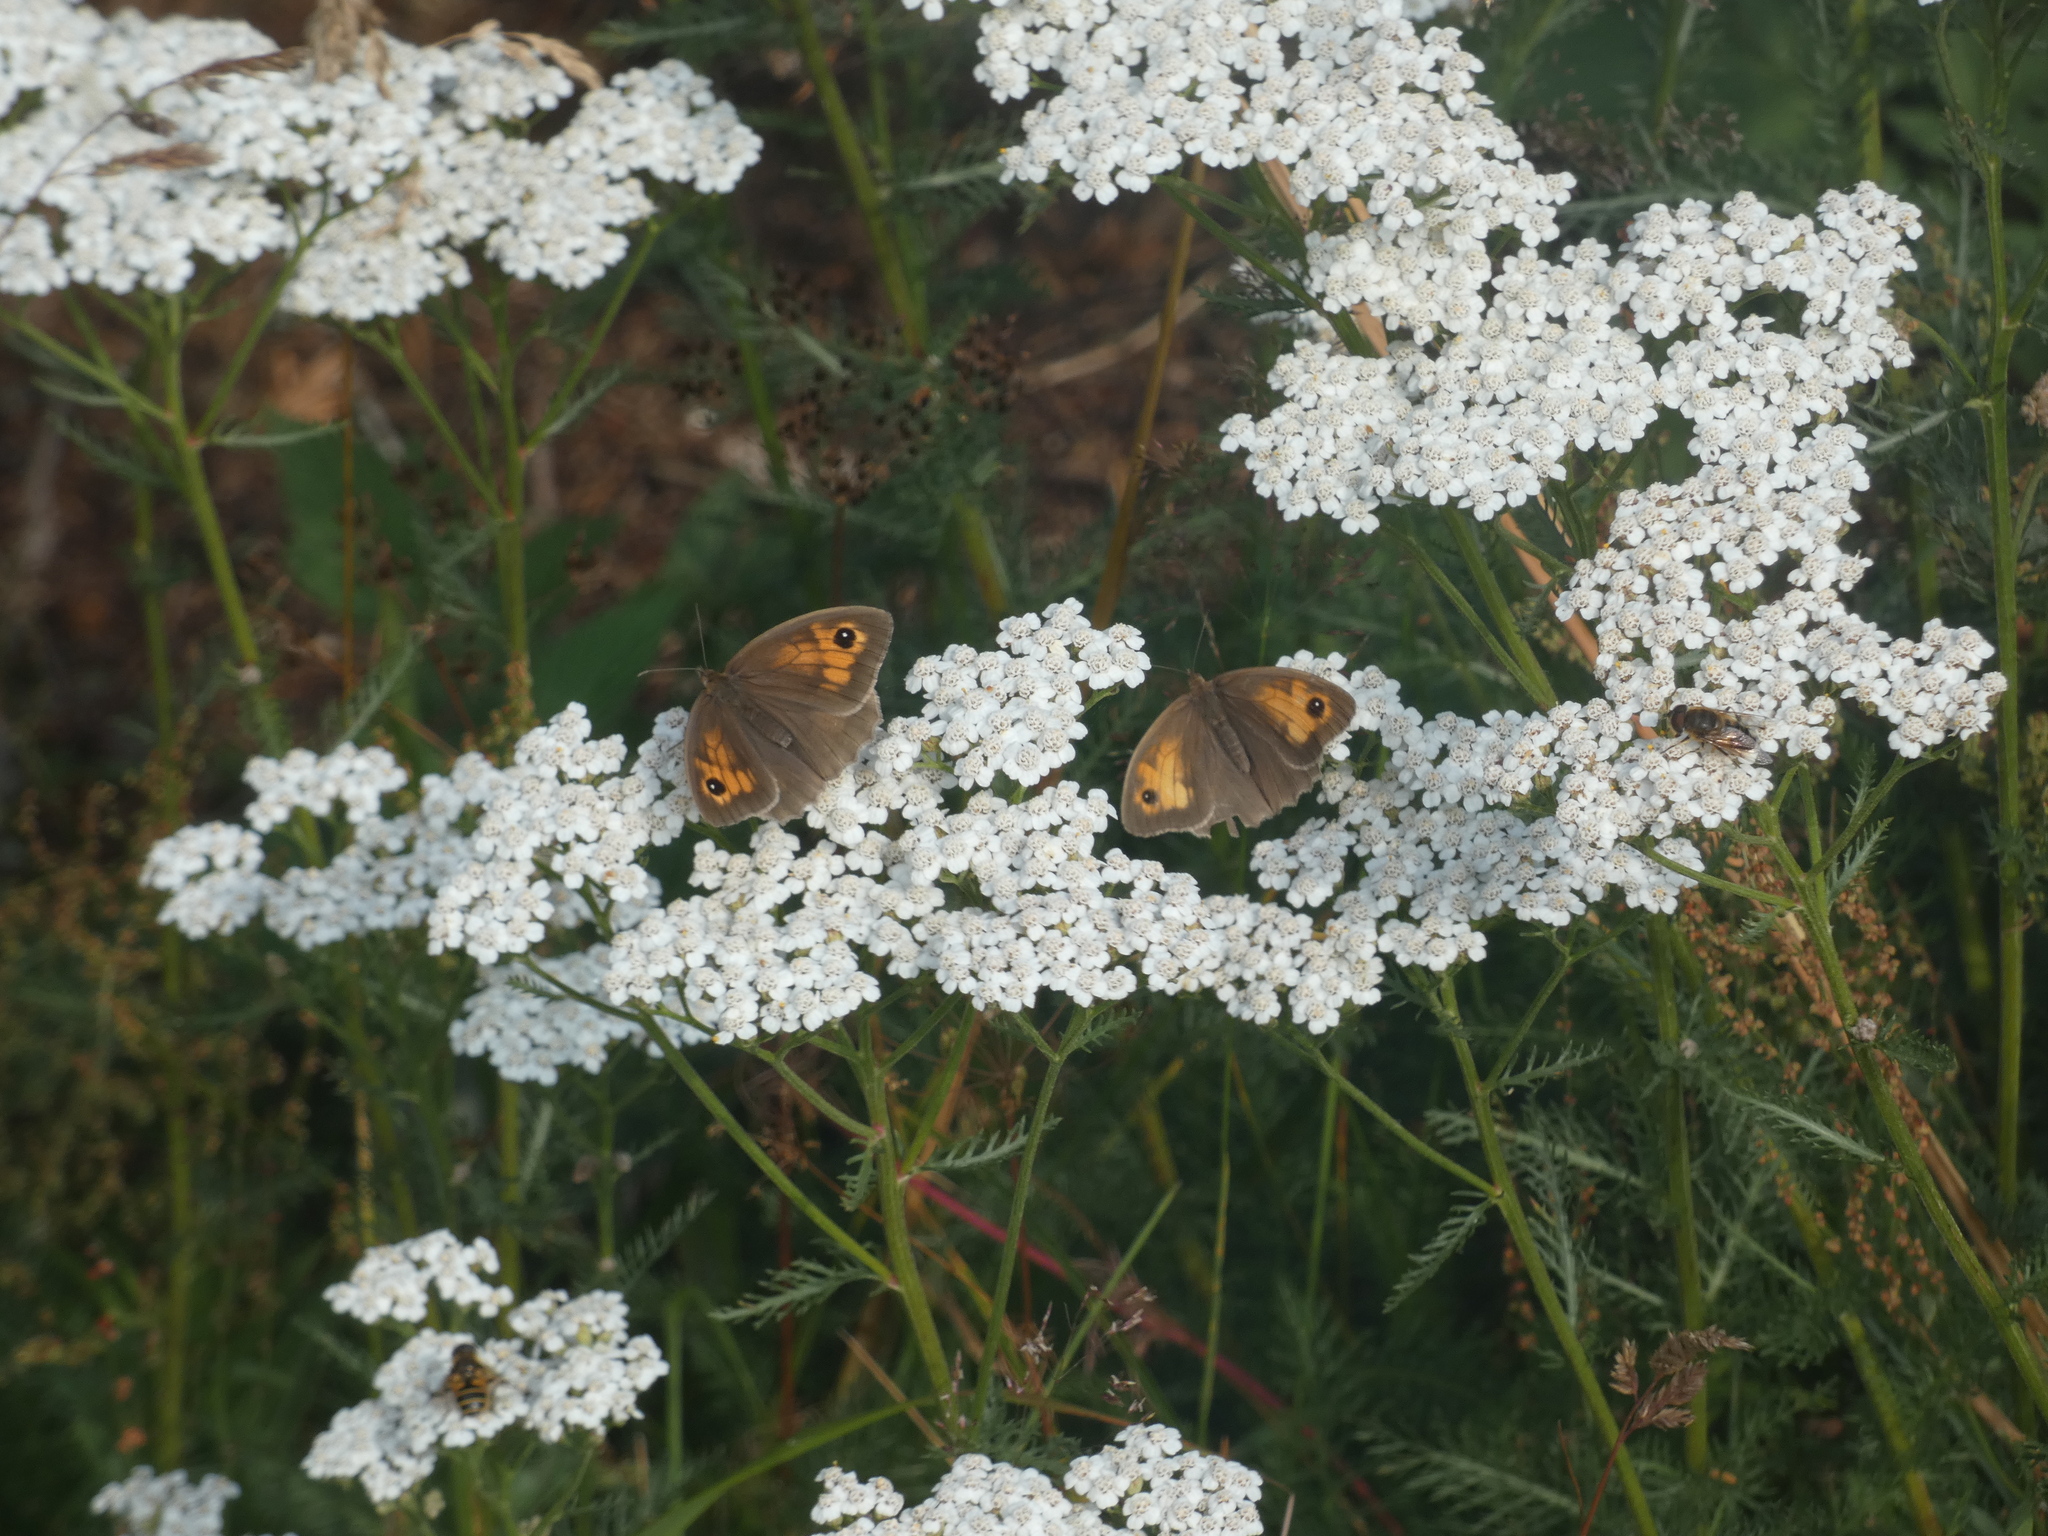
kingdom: Animalia
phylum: Arthropoda
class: Insecta
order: Lepidoptera
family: Nymphalidae
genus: Maniola
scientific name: Maniola jurtina
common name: Meadow brown
